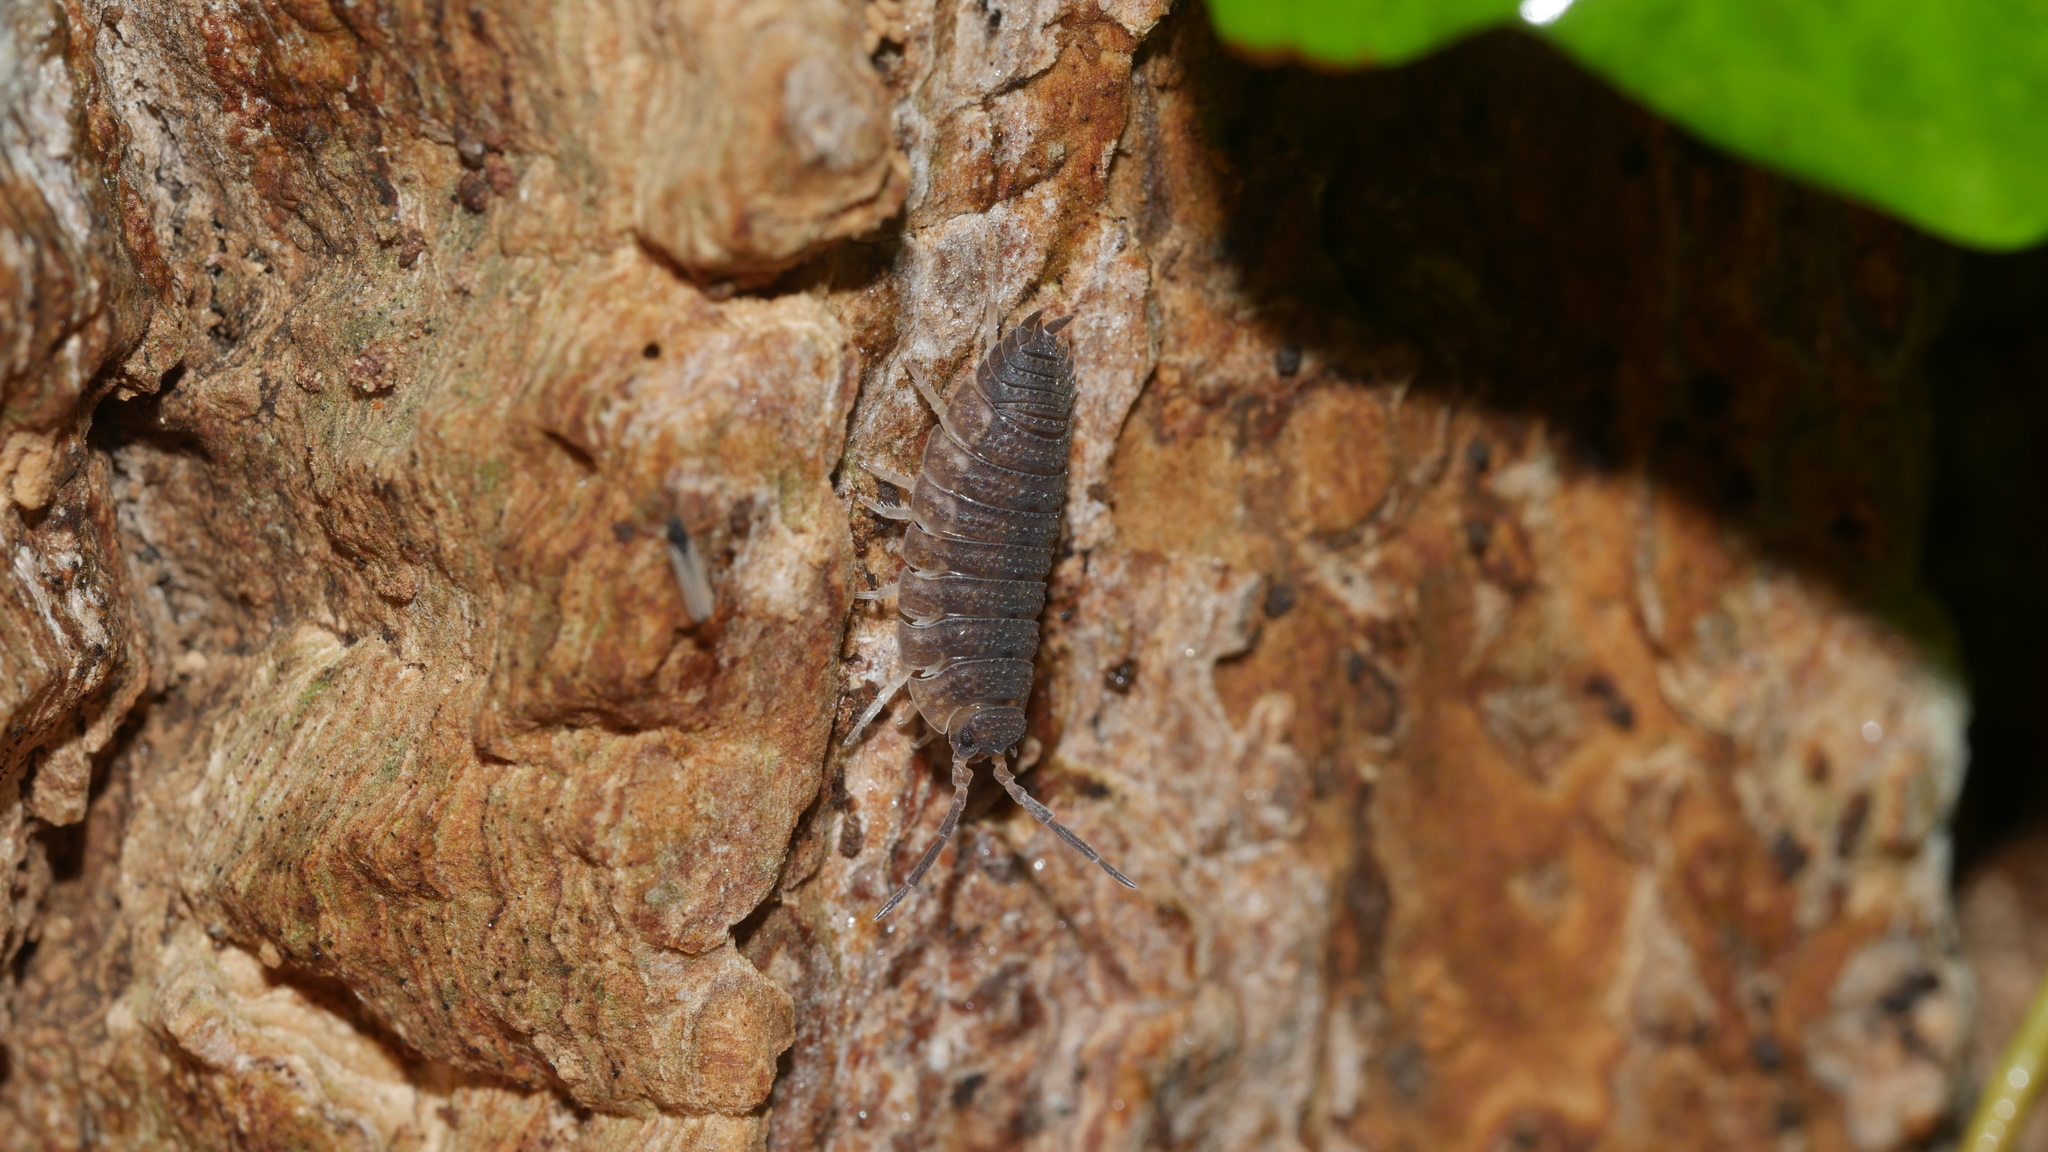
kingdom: Animalia
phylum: Arthropoda
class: Malacostraca
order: Isopoda
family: Porcellionidae
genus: Porcellio
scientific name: Porcellio scaber
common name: Common rough woodlouse
